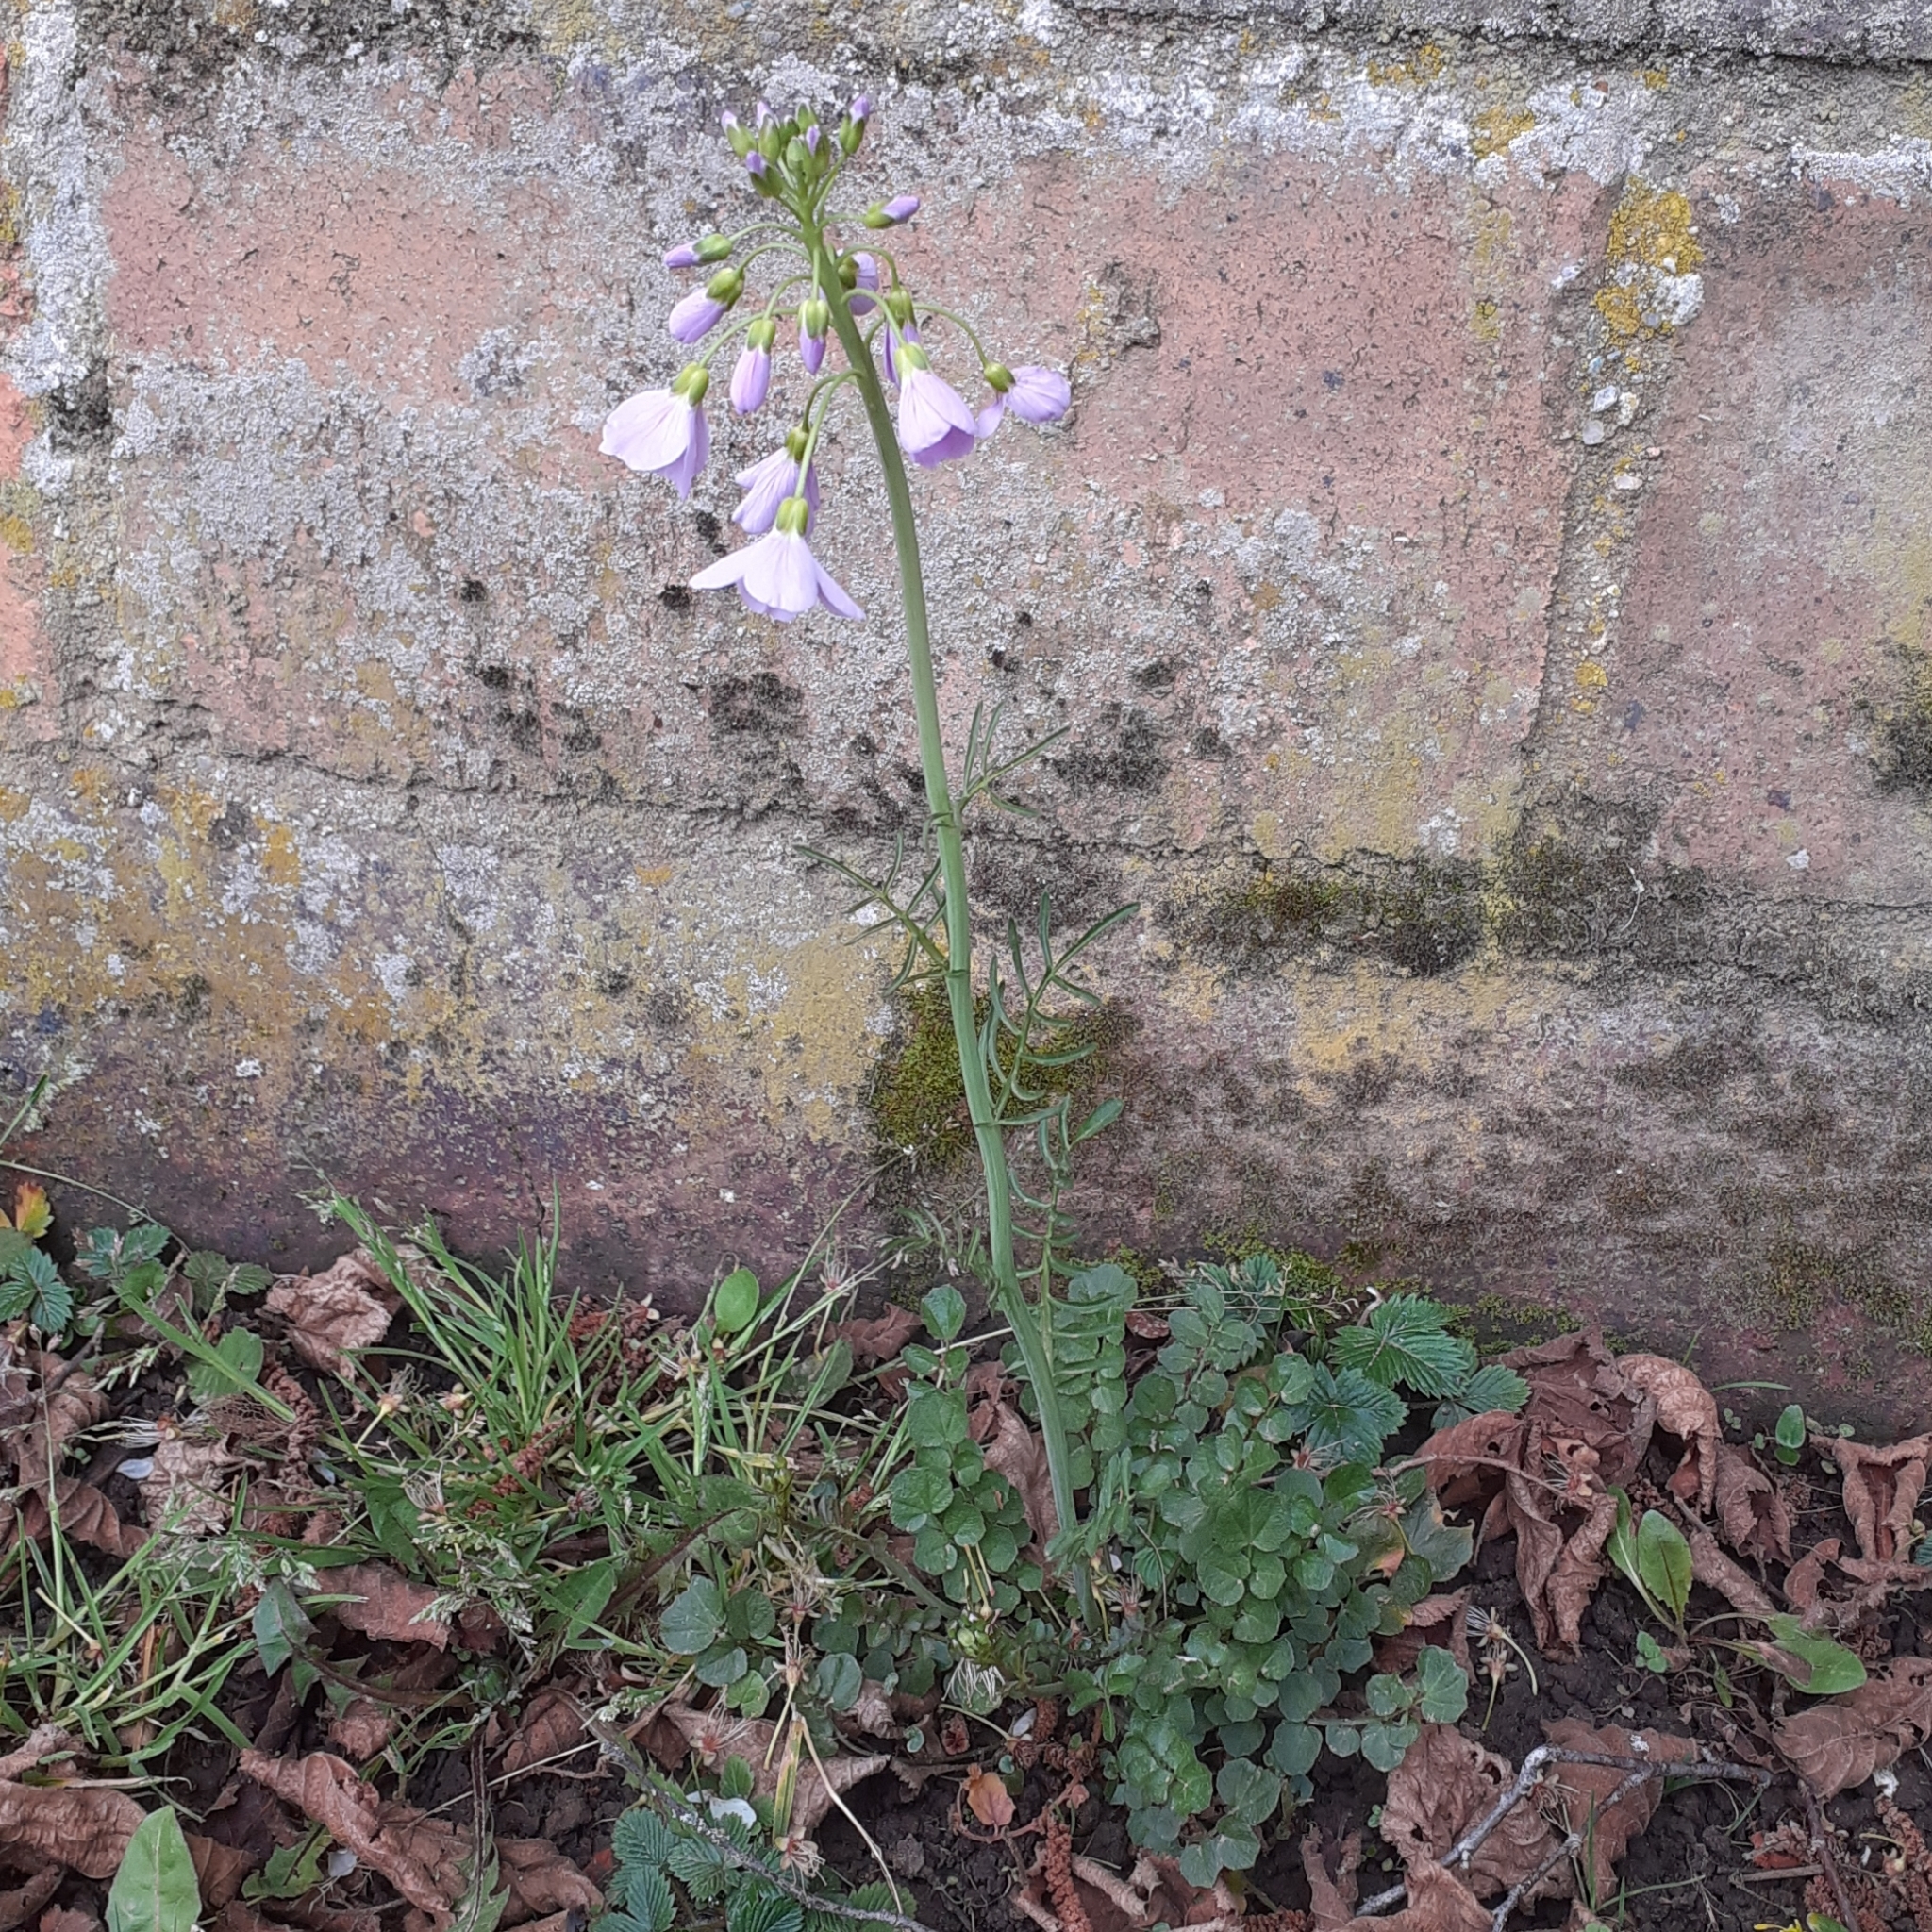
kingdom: Plantae
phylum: Tracheophyta
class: Magnoliopsida
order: Brassicales
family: Brassicaceae
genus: Cardamine
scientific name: Cardamine pratensis
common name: Cuckoo flower
